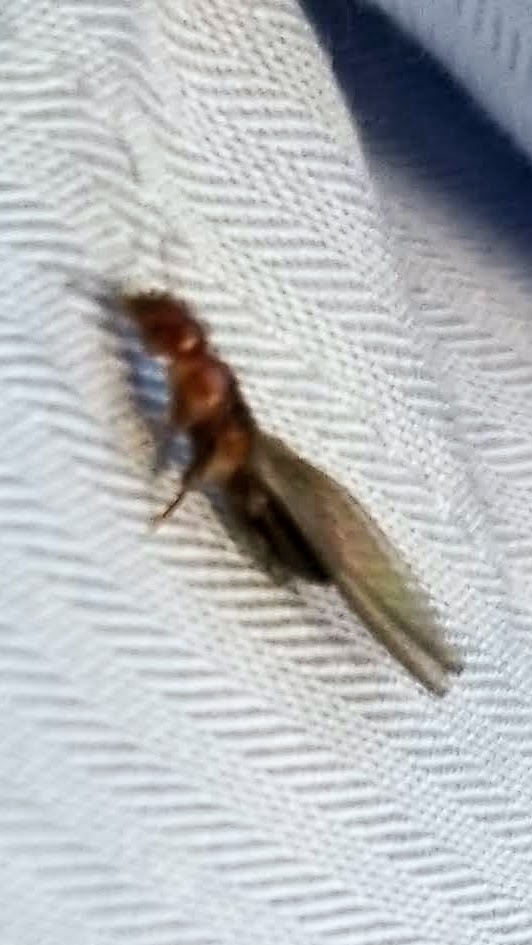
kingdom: Animalia
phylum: Arthropoda
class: Insecta
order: Blattodea
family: Kalotermitidae
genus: Incisitermes
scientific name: Incisitermes minor
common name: Termite
